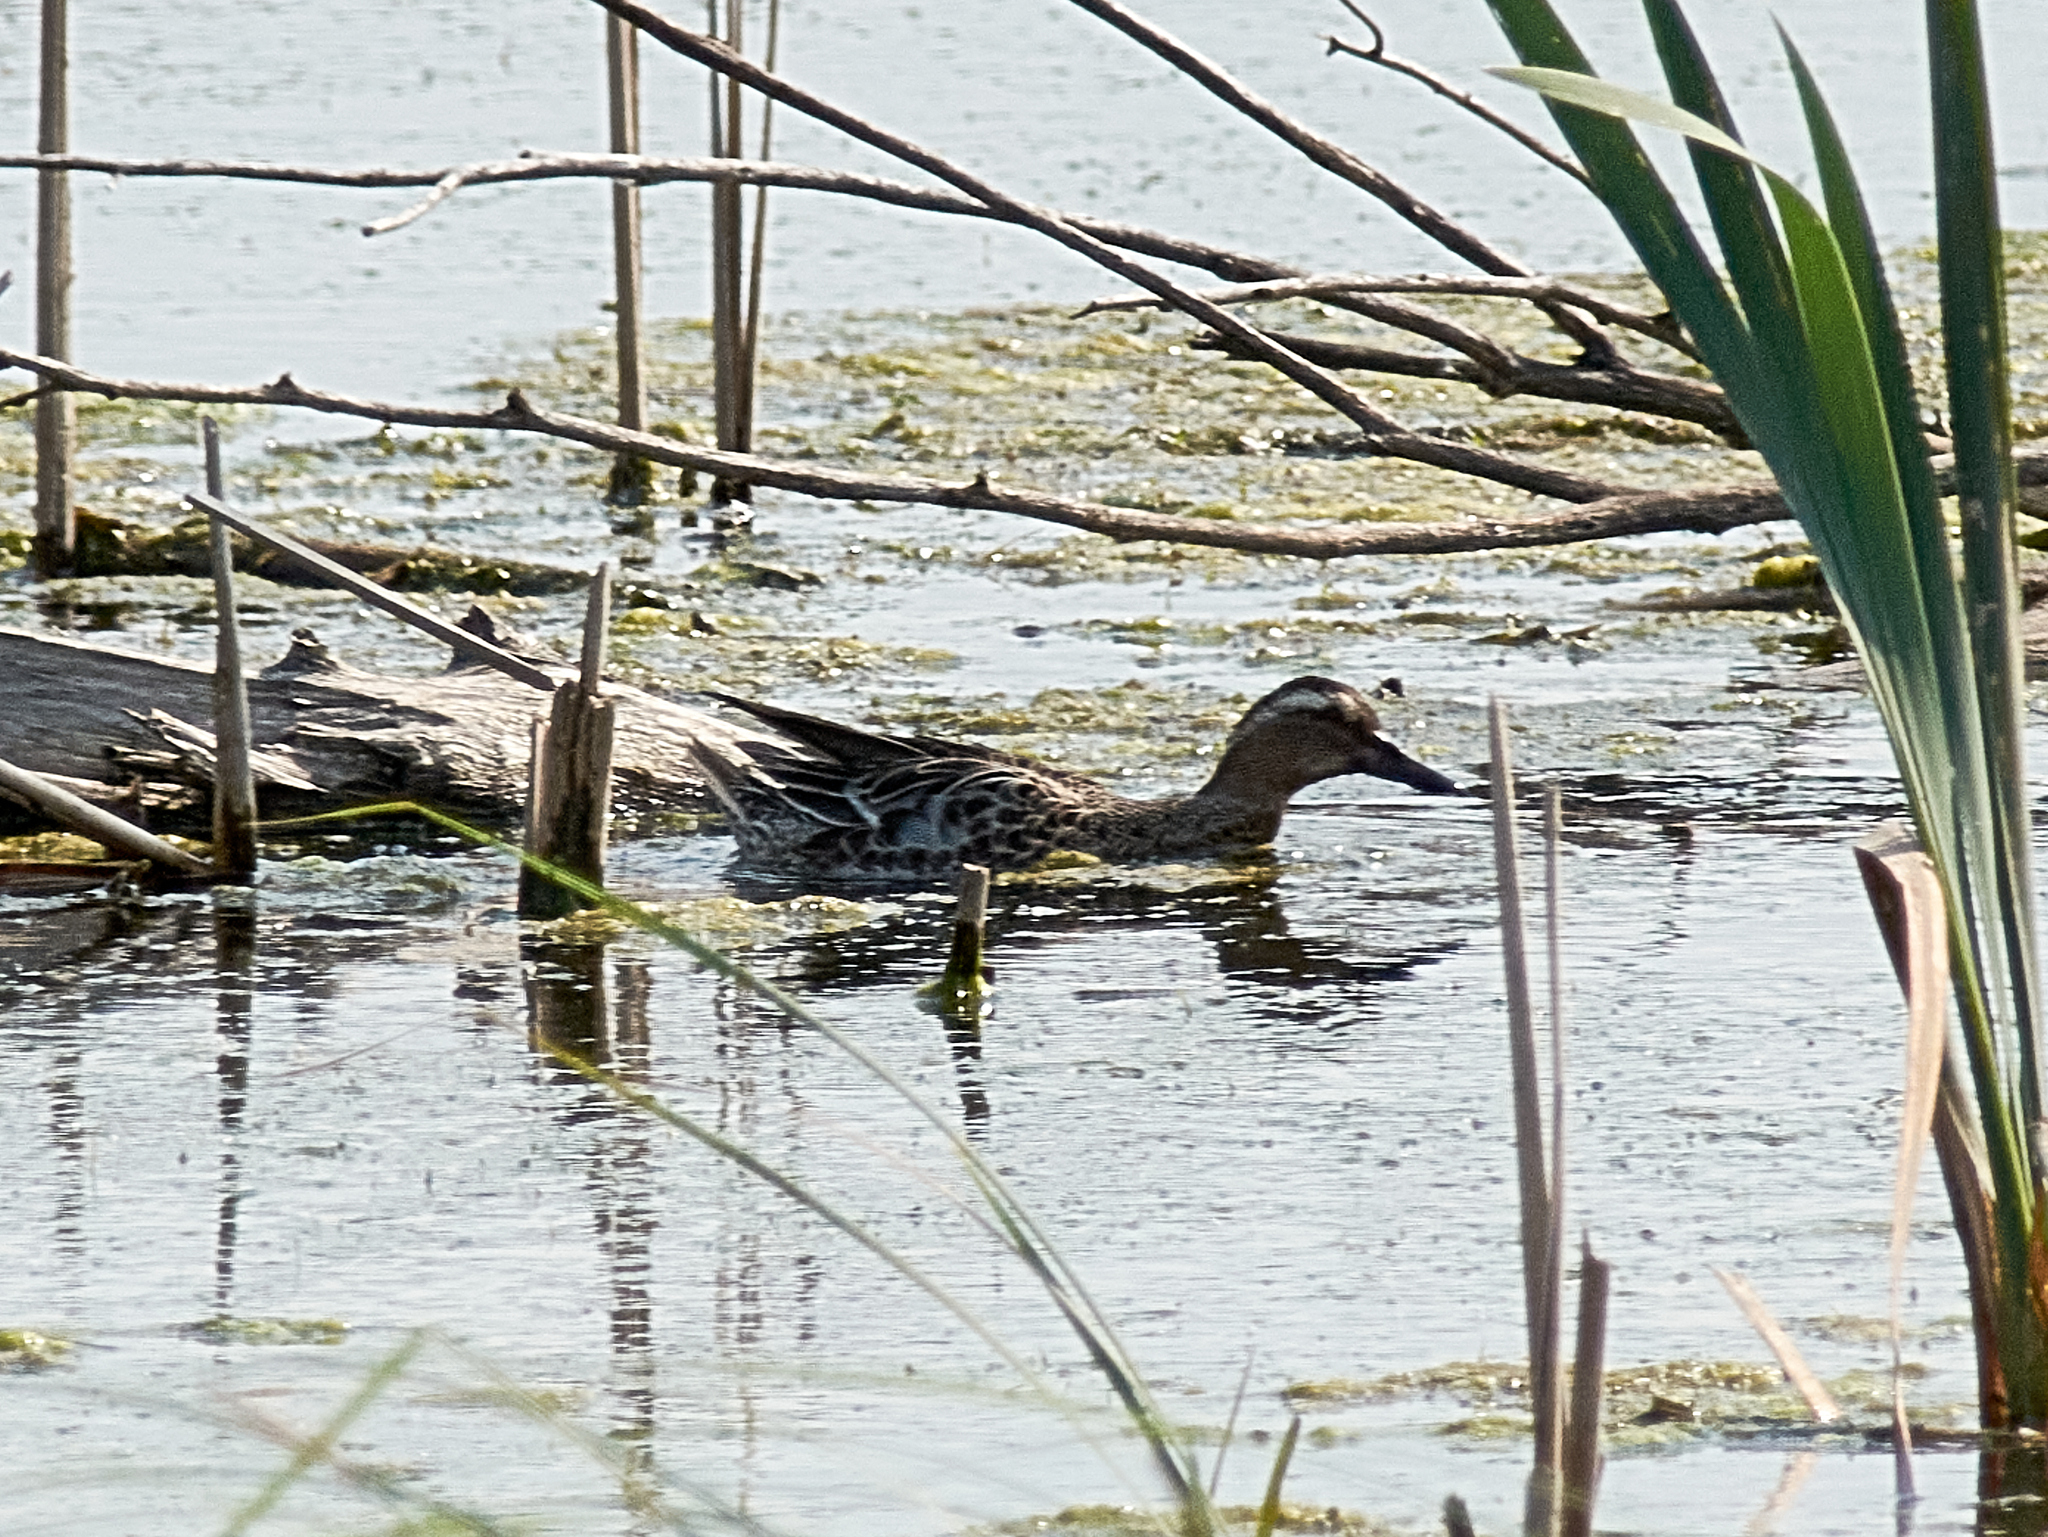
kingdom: Animalia
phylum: Chordata
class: Aves
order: Anseriformes
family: Anatidae
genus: Spatula
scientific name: Spatula querquedula
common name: Garganey
